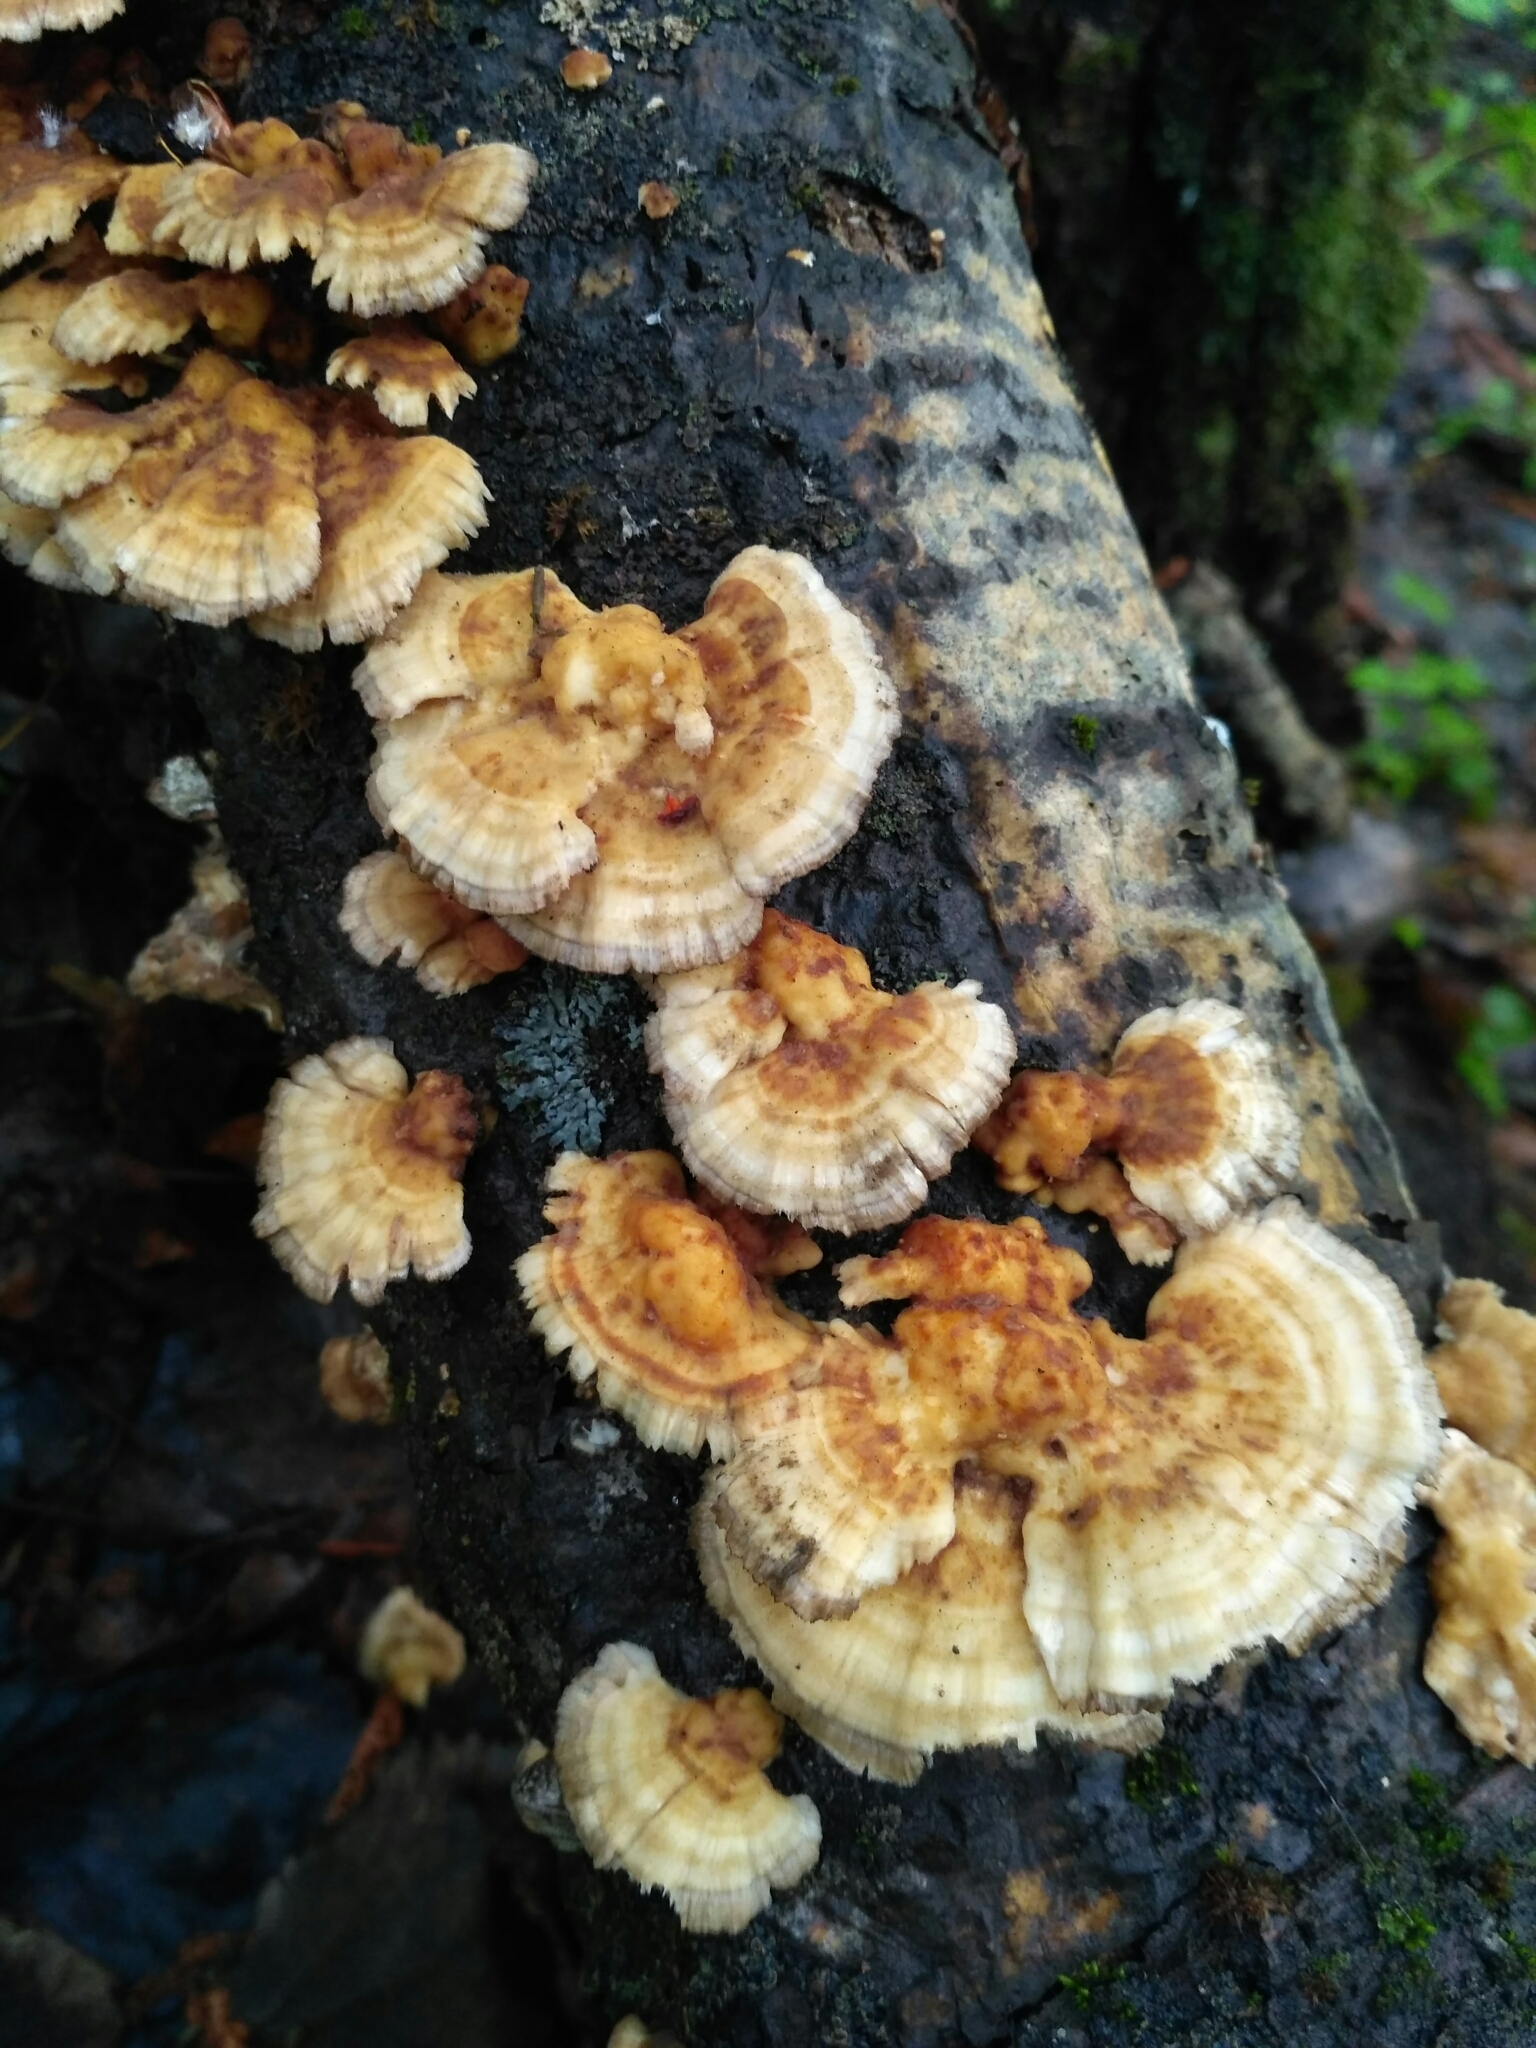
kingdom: Fungi
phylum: Basidiomycota
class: Agaricomycetes
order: Polyporales
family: Polyporaceae
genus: Trametes
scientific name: Trametes ochracea
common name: Ochre bracket
